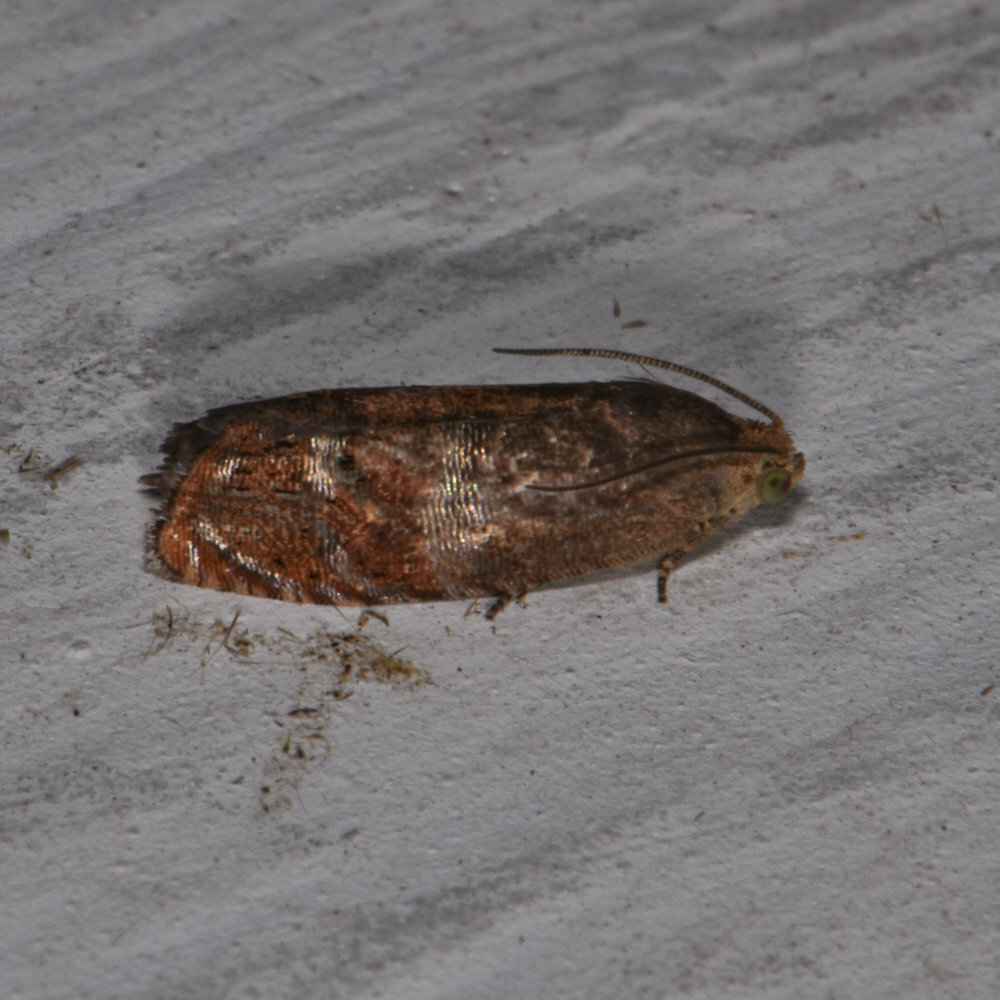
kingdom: Animalia
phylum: Arthropoda
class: Insecta
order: Lepidoptera
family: Tortricidae
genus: Cydia
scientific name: Cydia latiferreana
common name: Filbertworm moth
